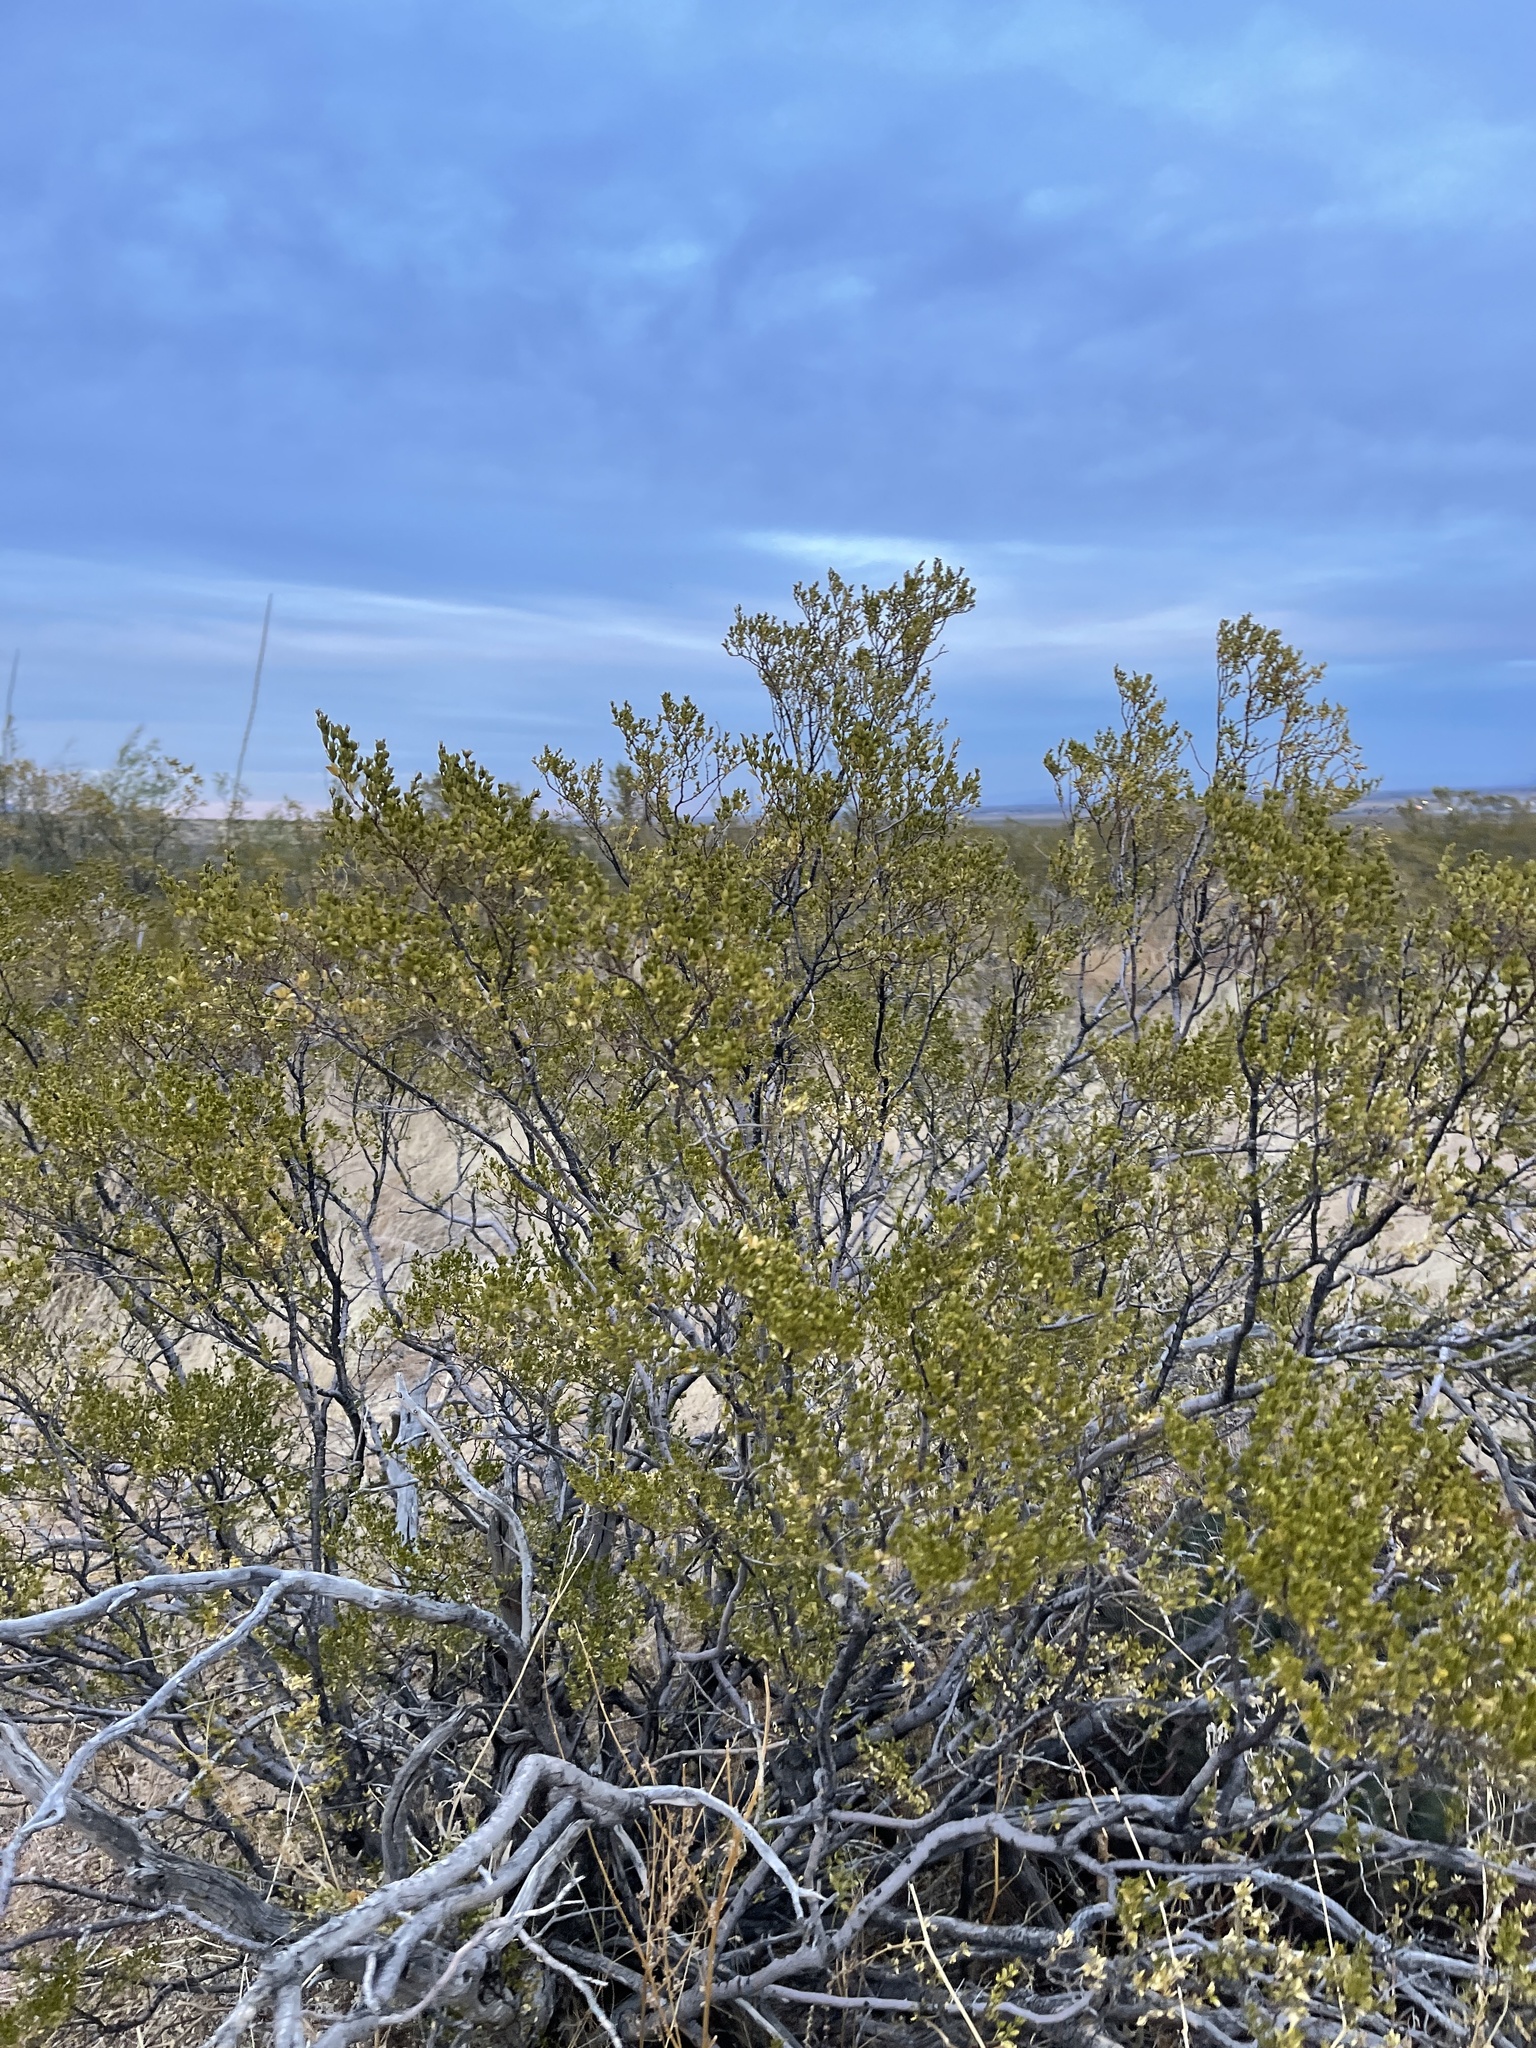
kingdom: Plantae
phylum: Tracheophyta
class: Magnoliopsida
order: Zygophyllales
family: Zygophyllaceae
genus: Larrea
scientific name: Larrea tridentata
